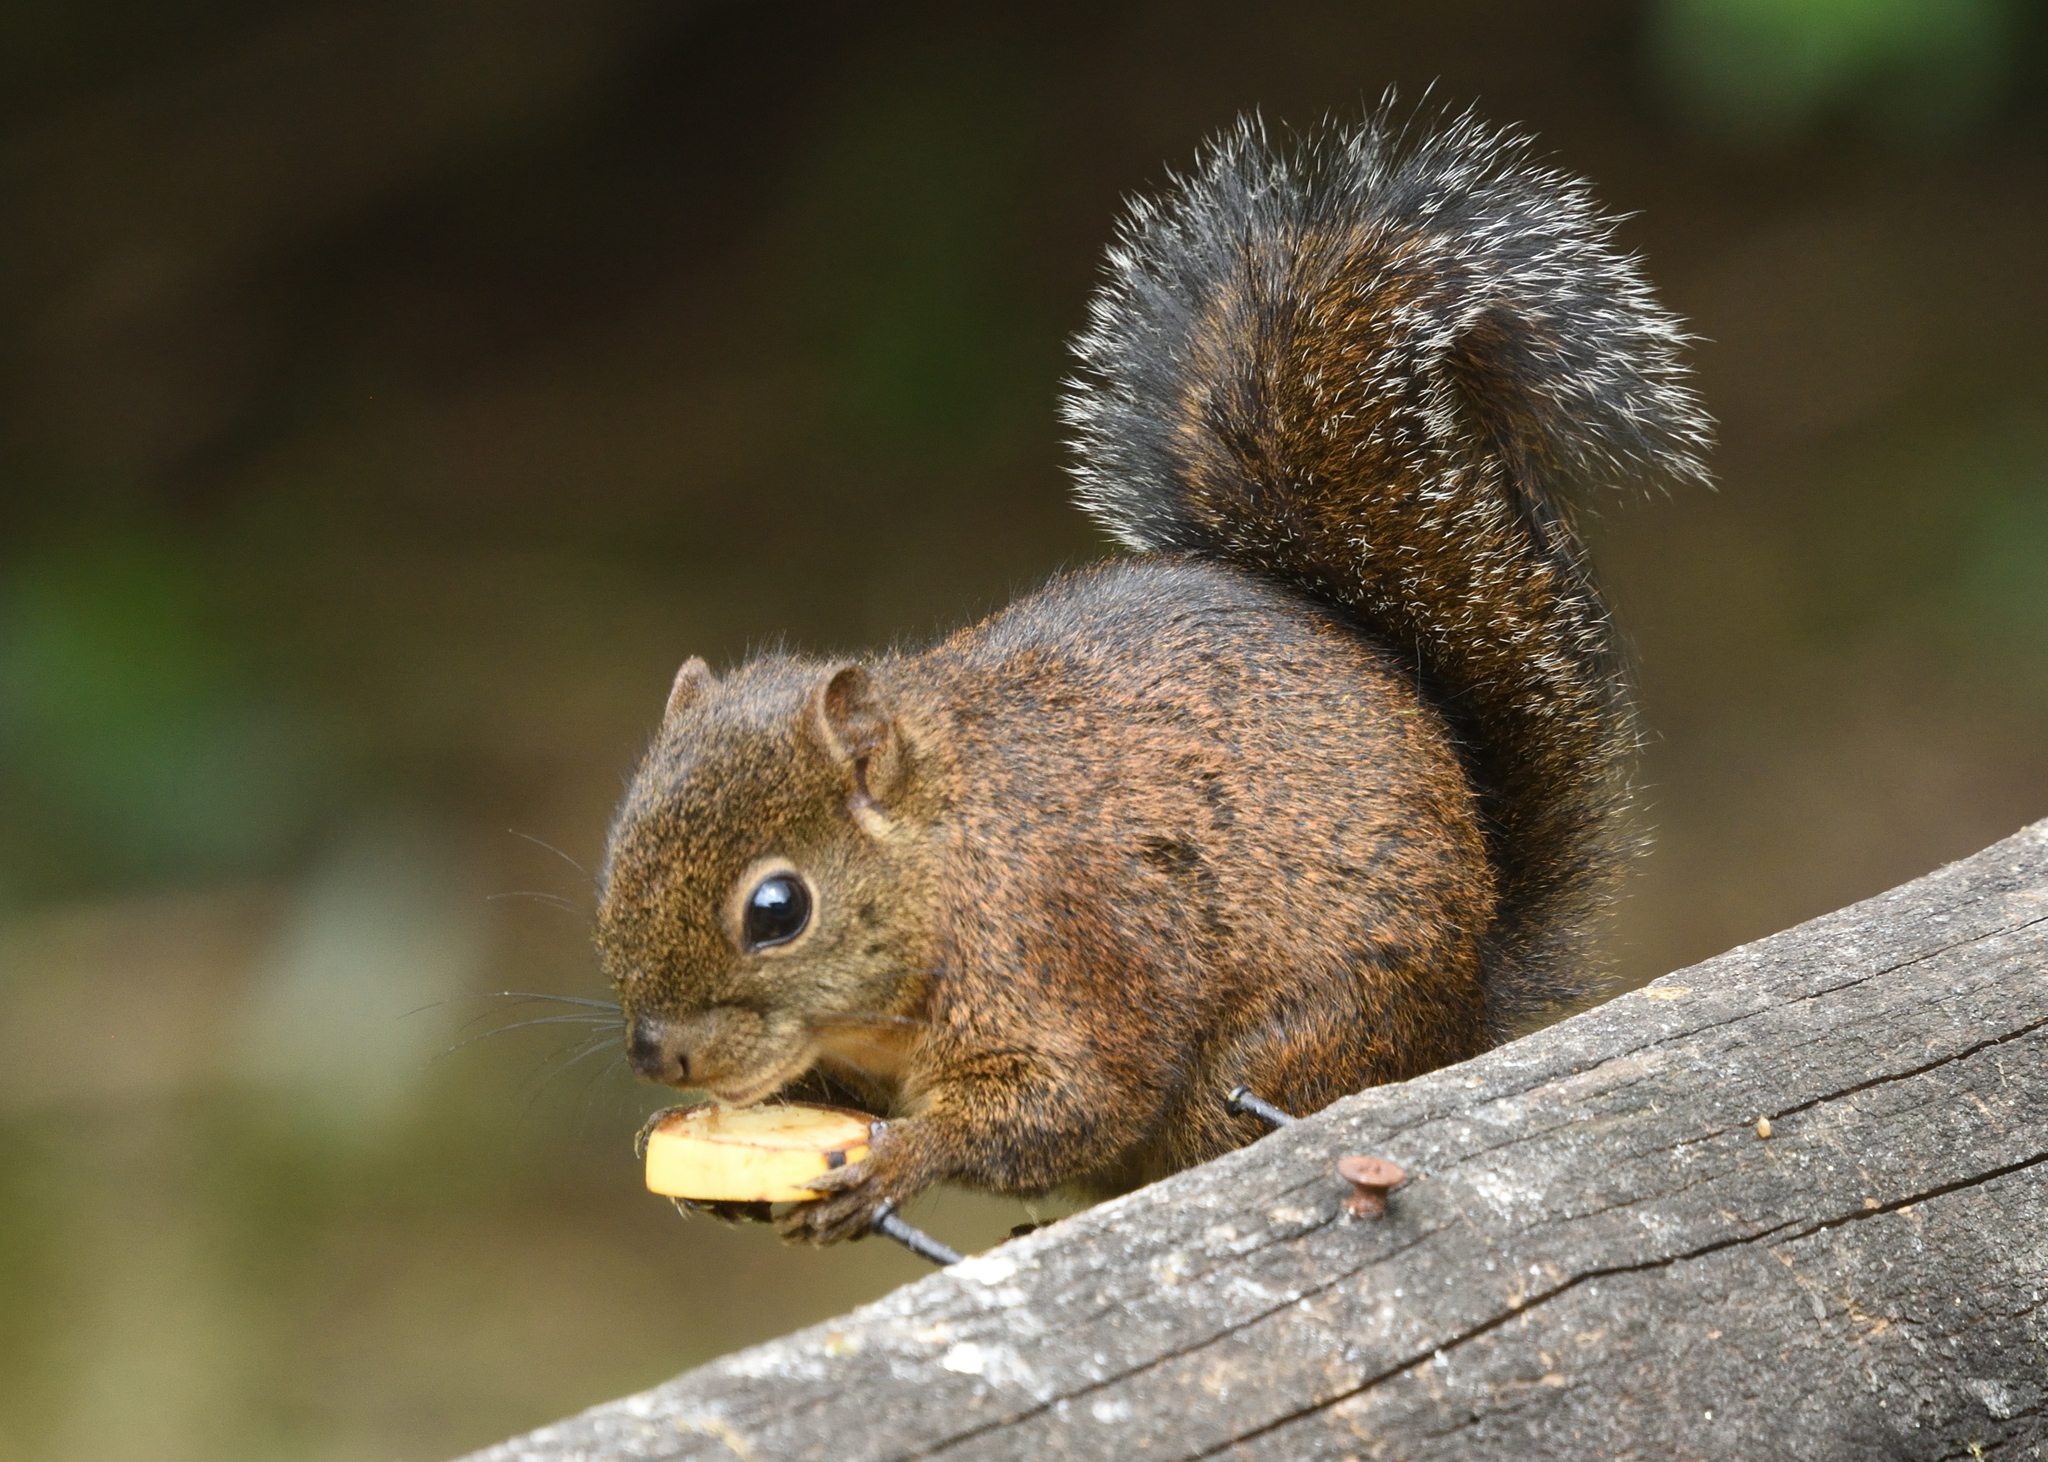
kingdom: Animalia
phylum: Chordata
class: Mammalia
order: Rodentia
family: Sciuridae
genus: Microsciurus
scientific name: Microsciurus mimulus
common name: Western dwarf squirrel
